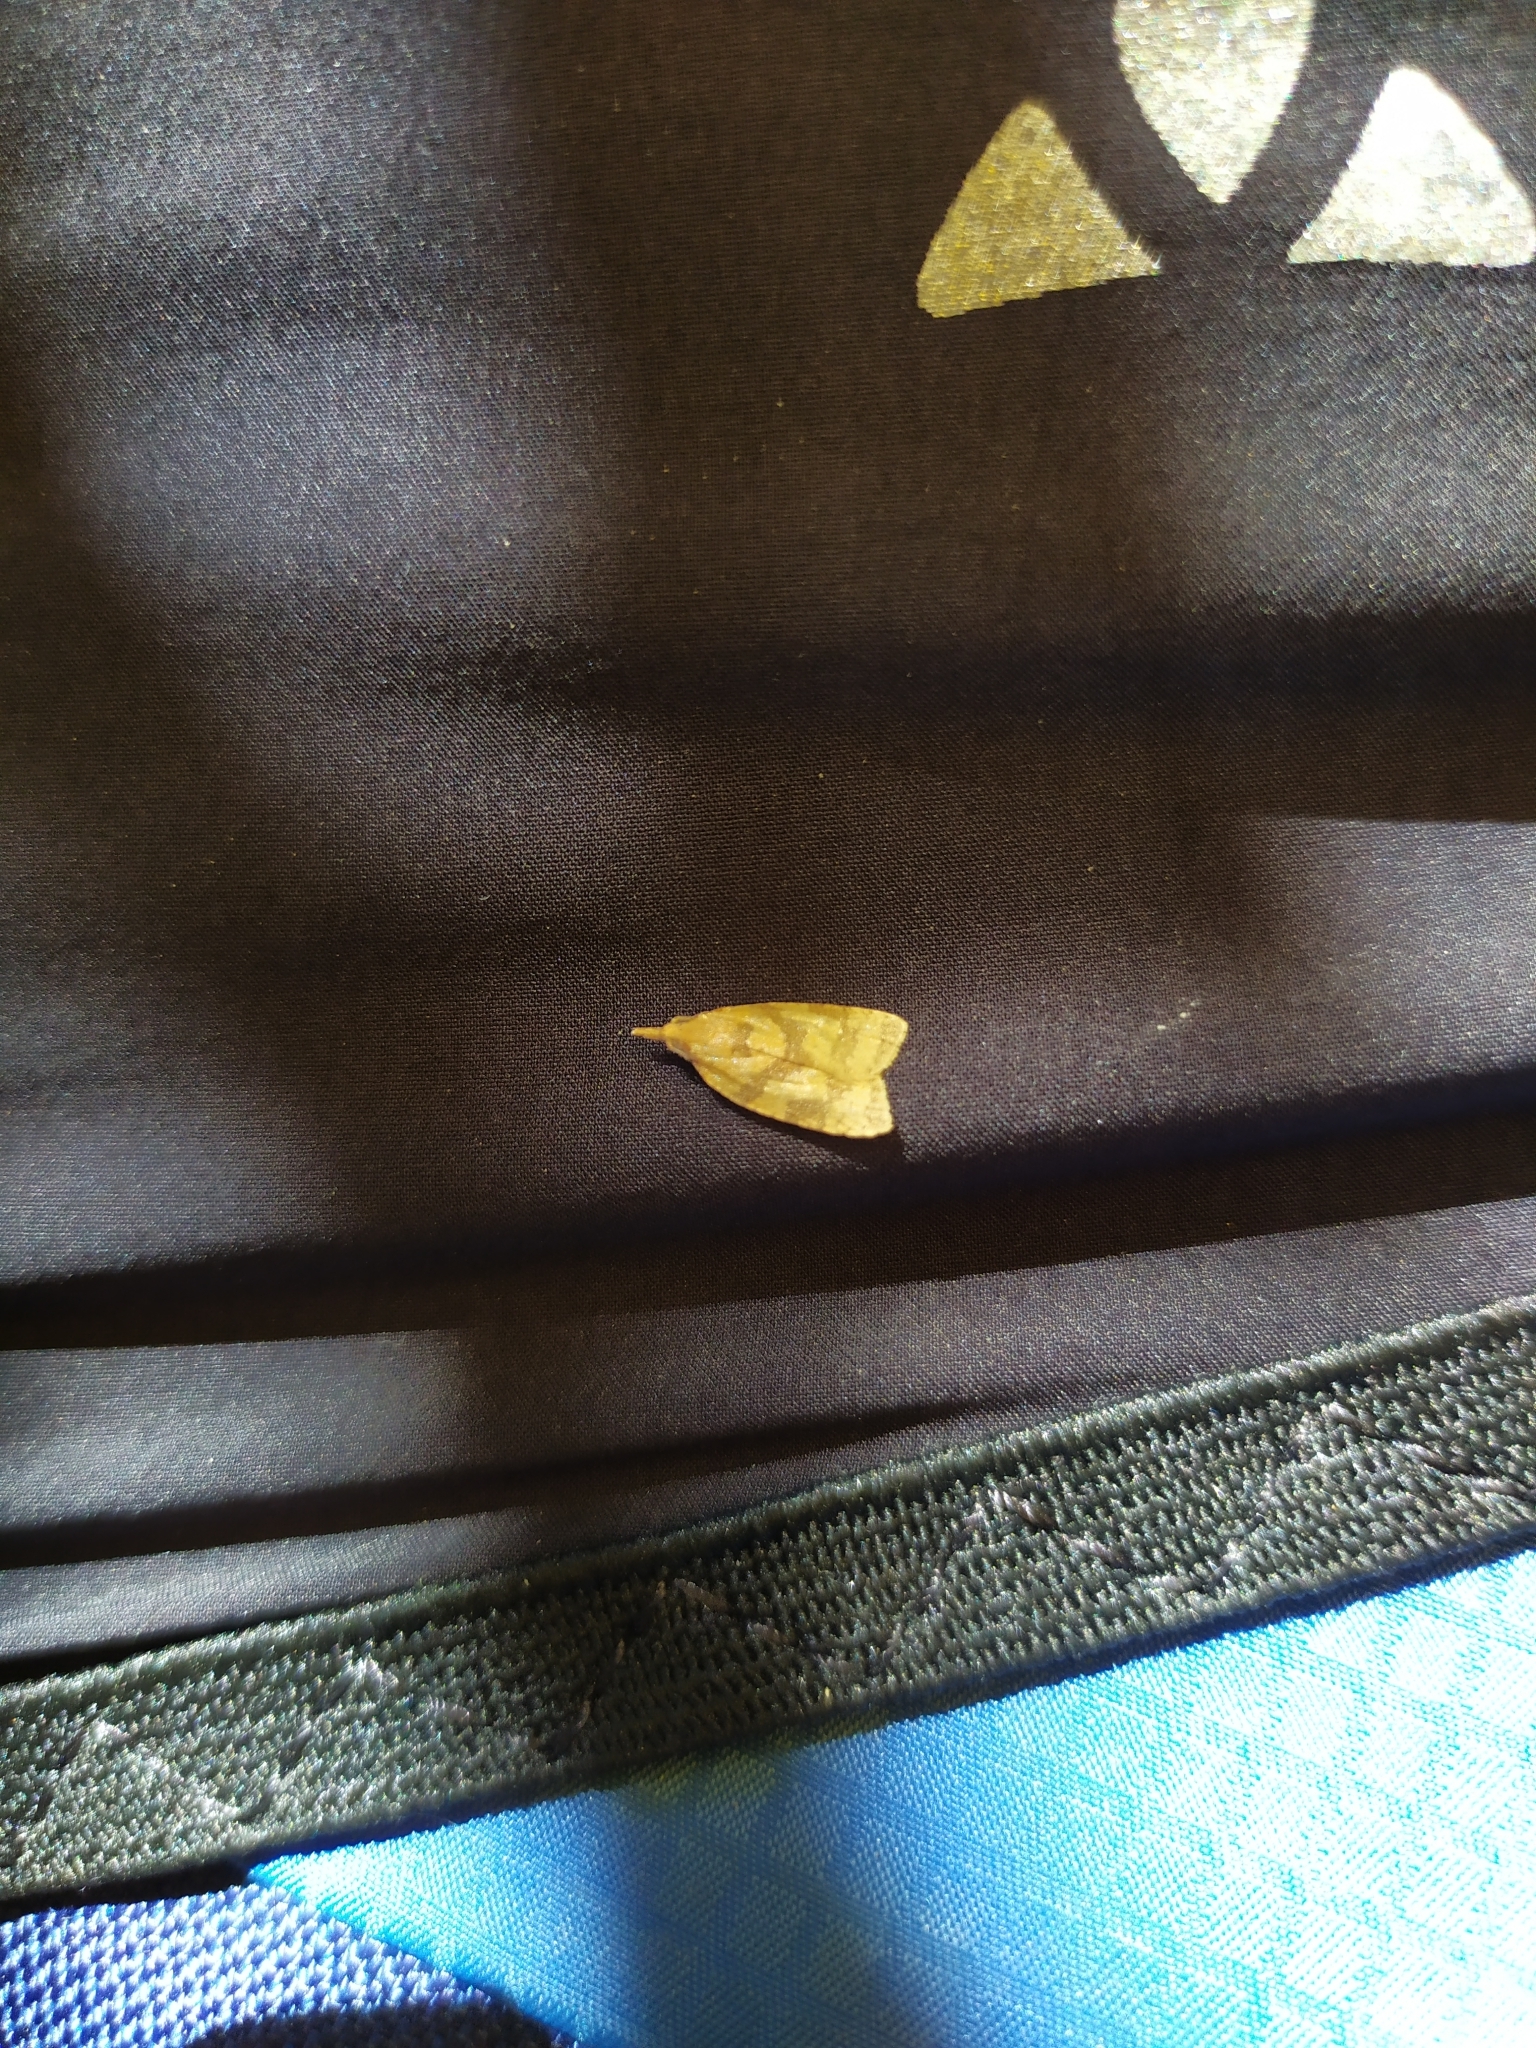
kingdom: Animalia
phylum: Arthropoda
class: Insecta
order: Lepidoptera
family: Tortricidae
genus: Sparganothis
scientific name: Sparganothis pilleriana
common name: Vine leaf-roller tortrix, long-nosed twist
